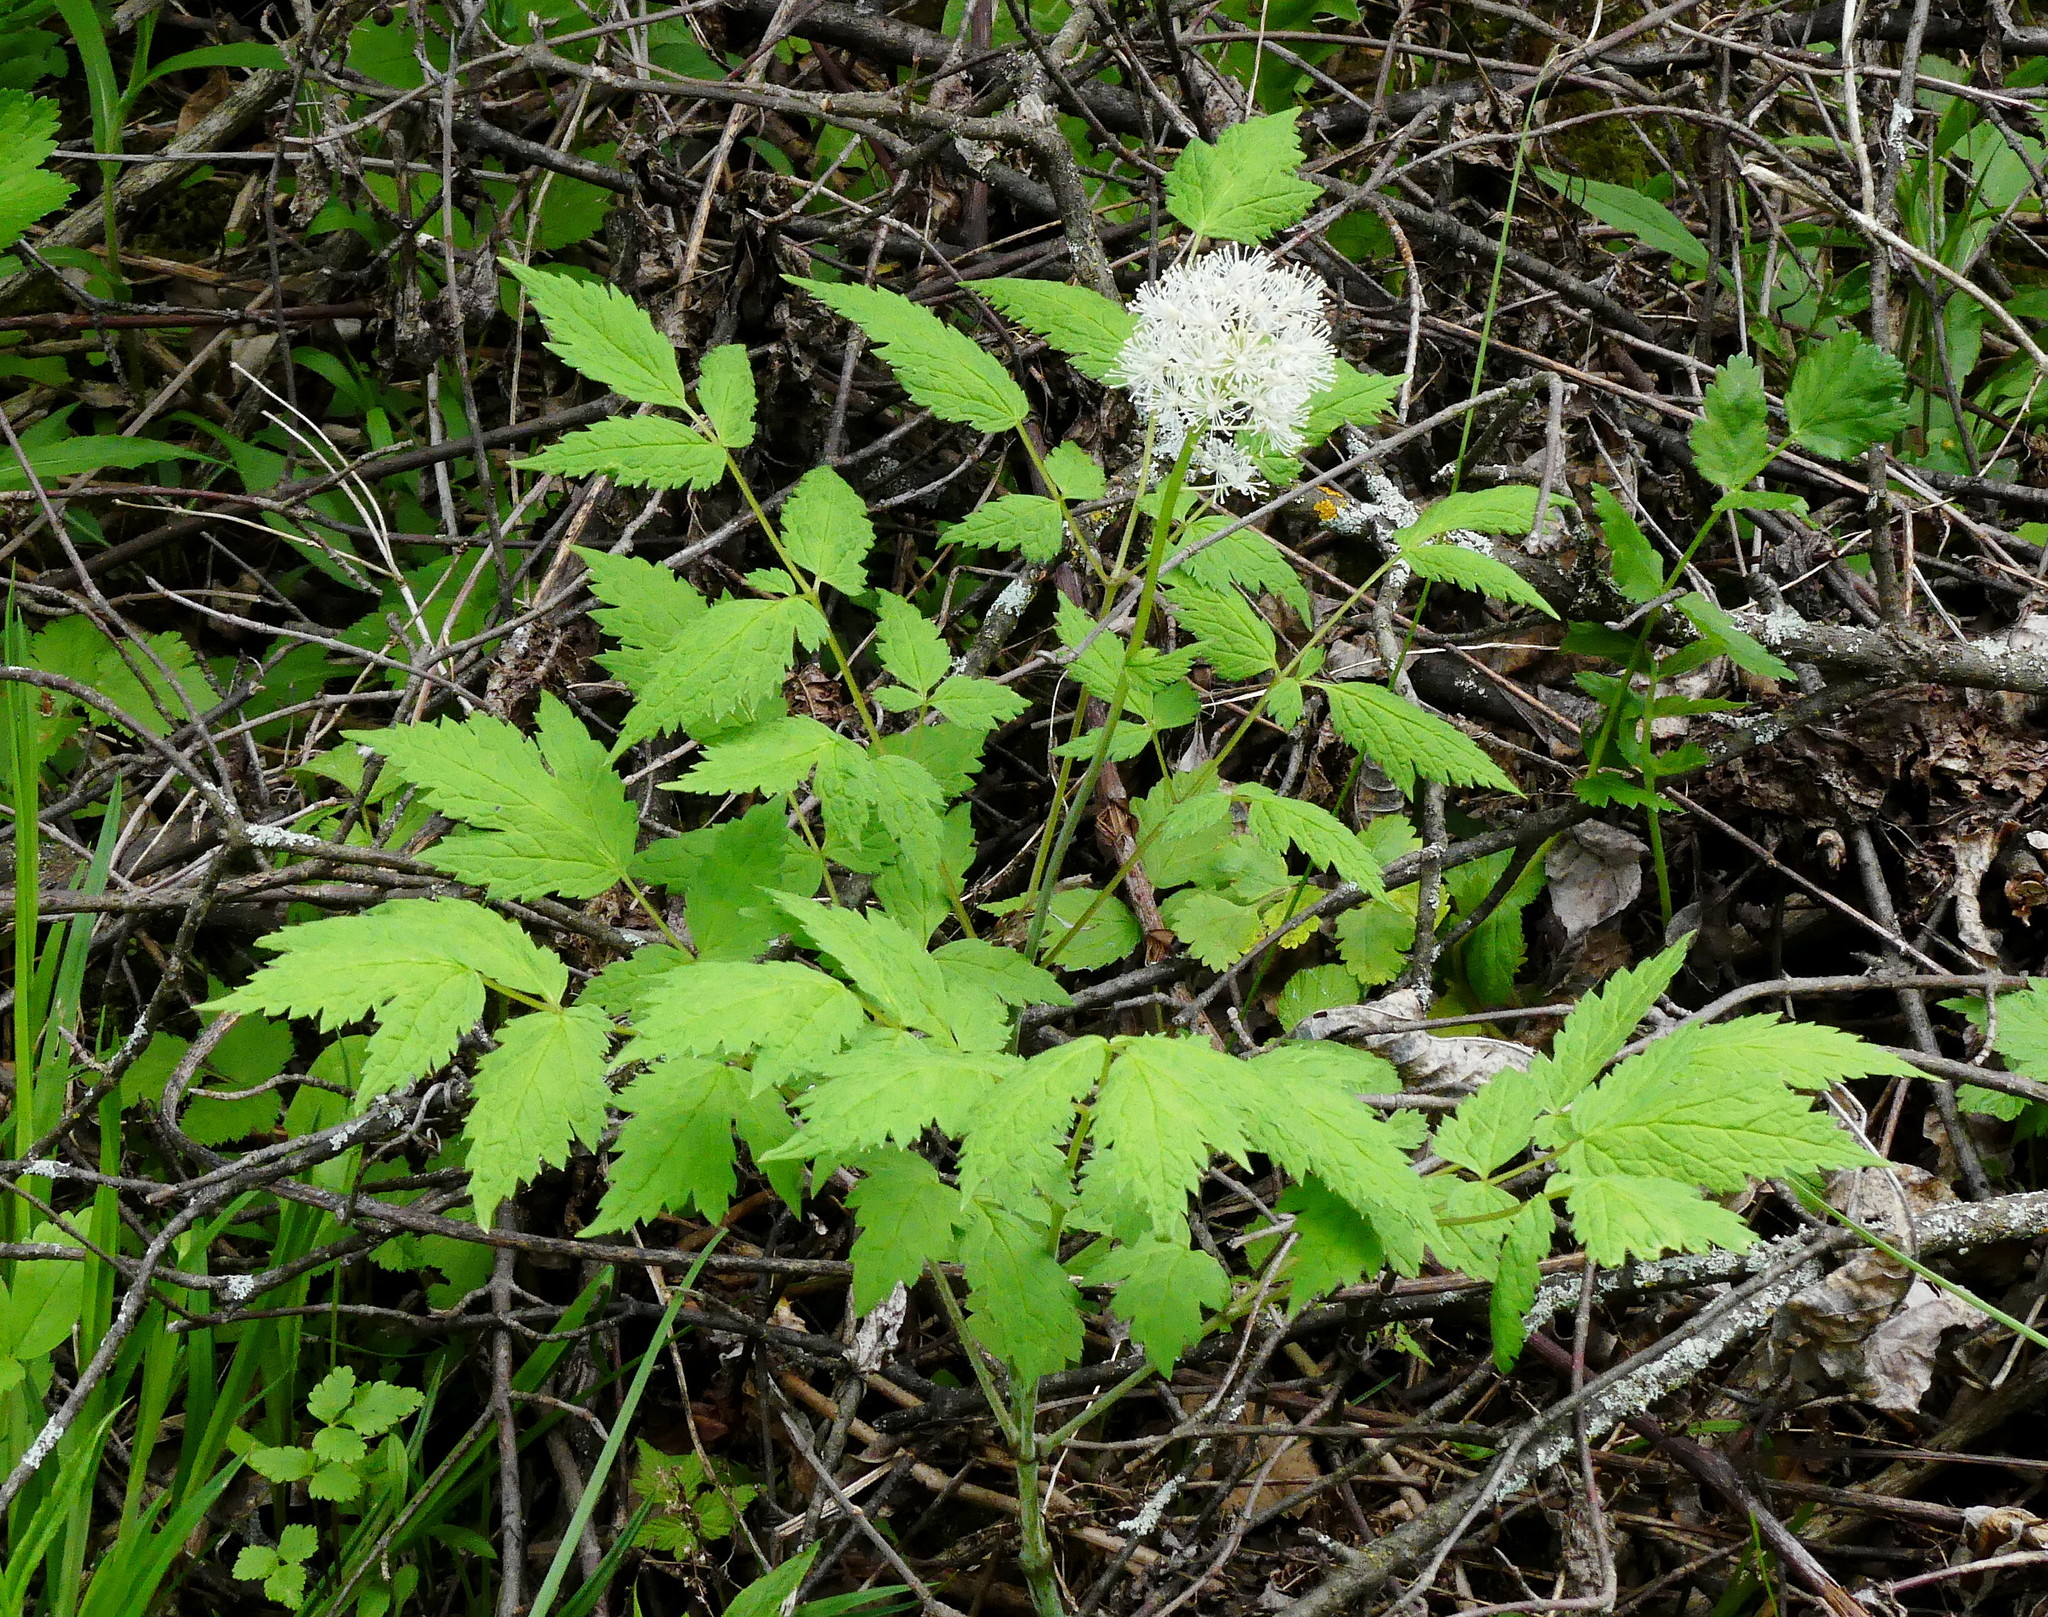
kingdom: Plantae
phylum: Tracheophyta
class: Magnoliopsida
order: Ranunculales
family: Ranunculaceae
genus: Actaea
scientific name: Actaea rubra
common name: Red baneberry
